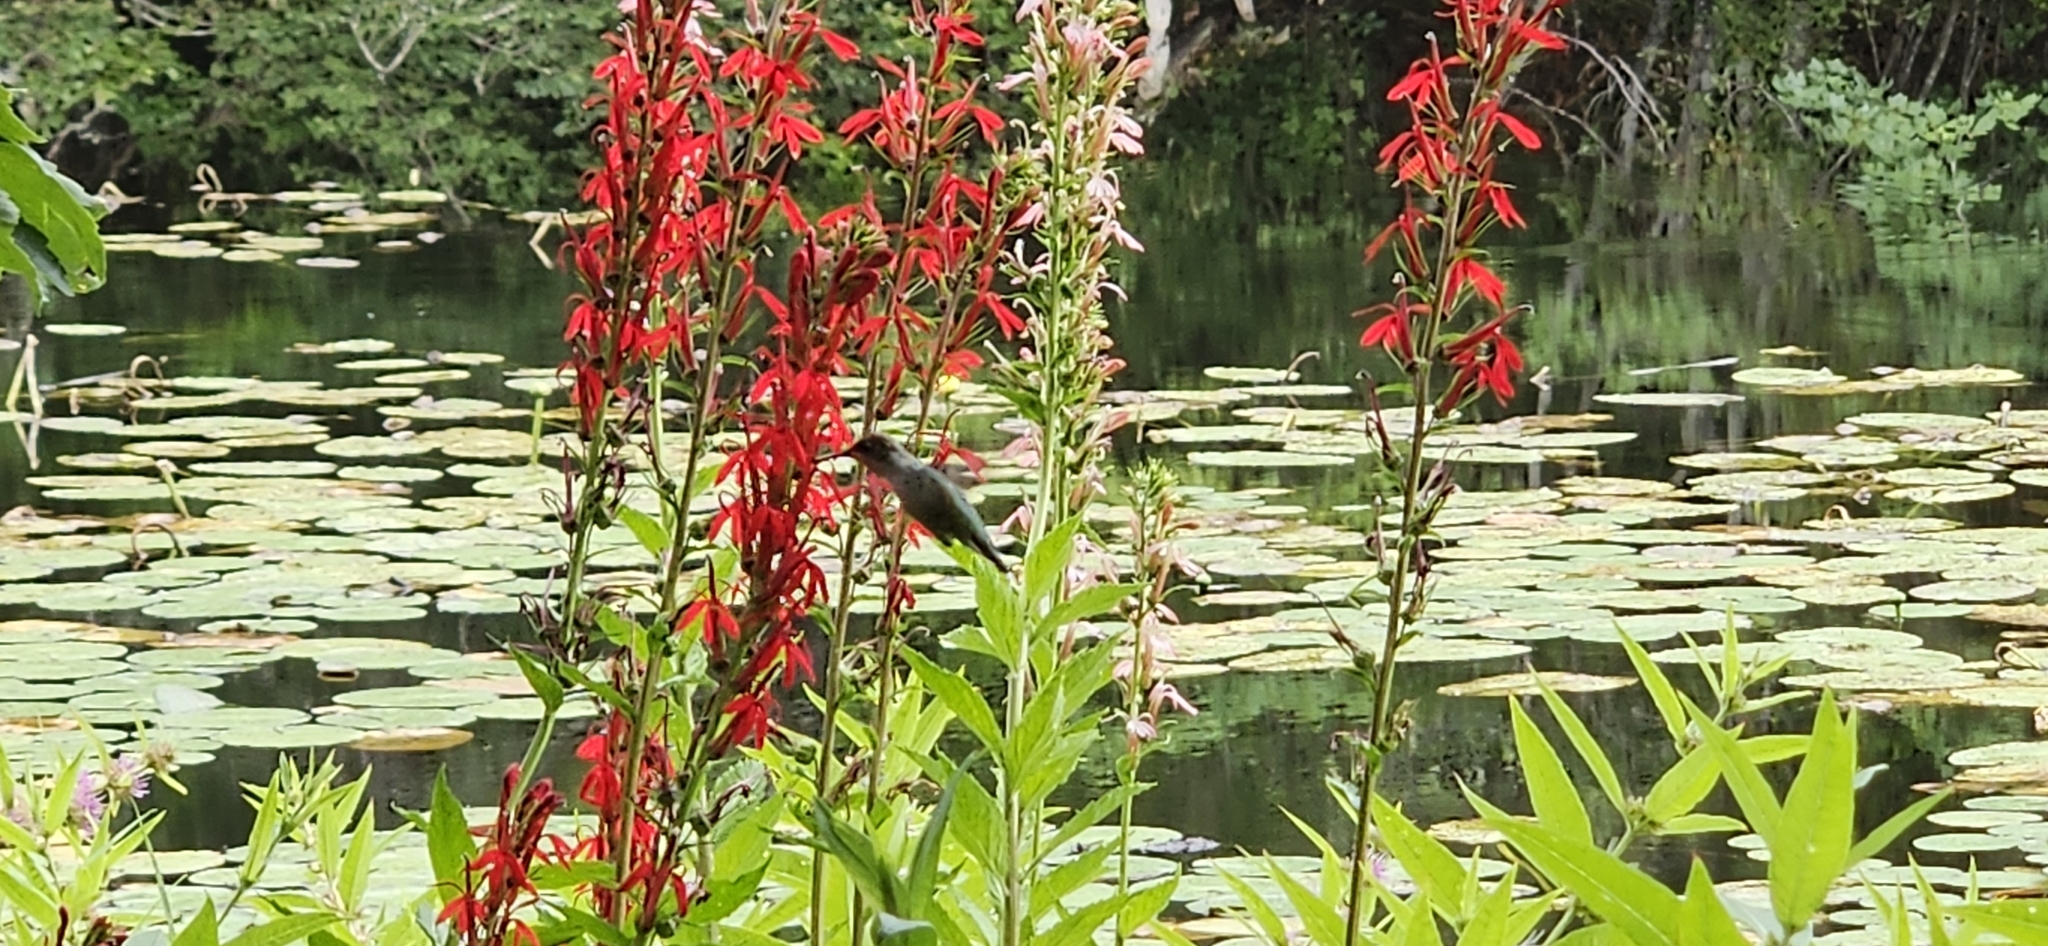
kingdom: Animalia
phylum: Chordata
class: Aves
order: Apodiformes
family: Trochilidae
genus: Archilochus
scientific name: Archilochus colubris
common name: Ruby-throated hummingbird
